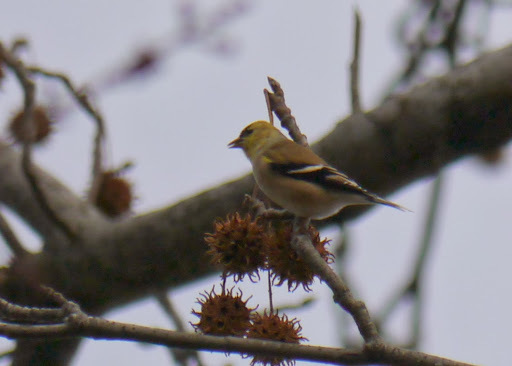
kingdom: Animalia
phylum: Chordata
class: Aves
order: Passeriformes
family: Fringillidae
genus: Spinus
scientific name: Spinus tristis
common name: American goldfinch
